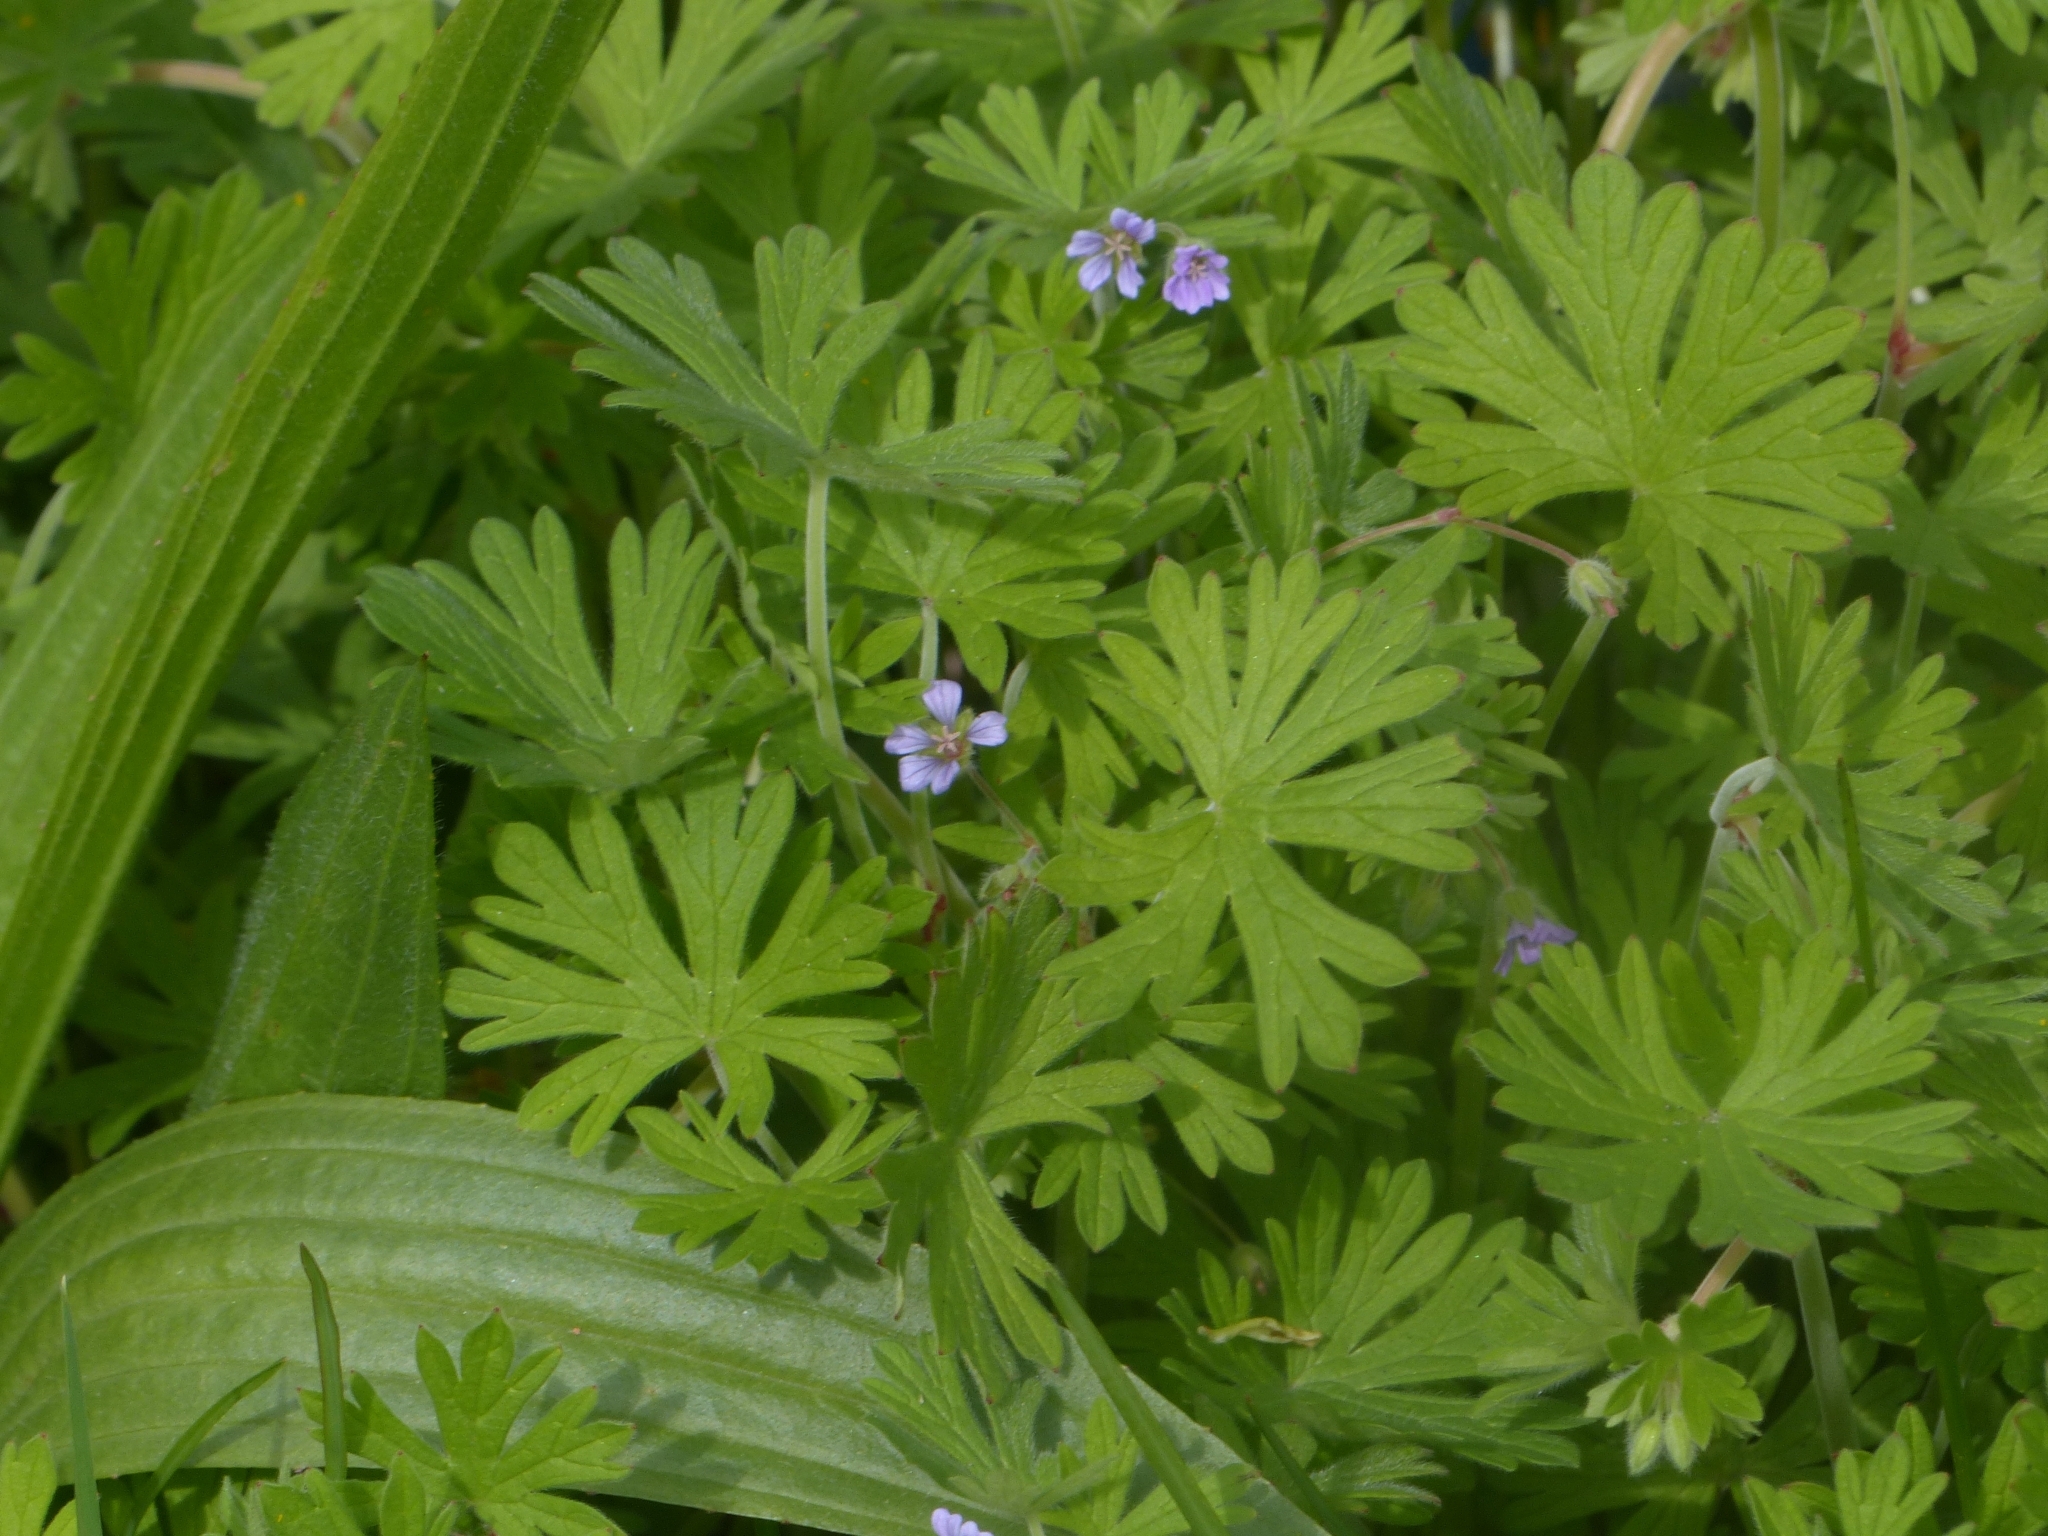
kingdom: Plantae
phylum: Tracheophyta
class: Magnoliopsida
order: Geraniales
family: Geraniaceae
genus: Geranium
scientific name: Geranium dissectum
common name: Cut-leaved crane's-bill
